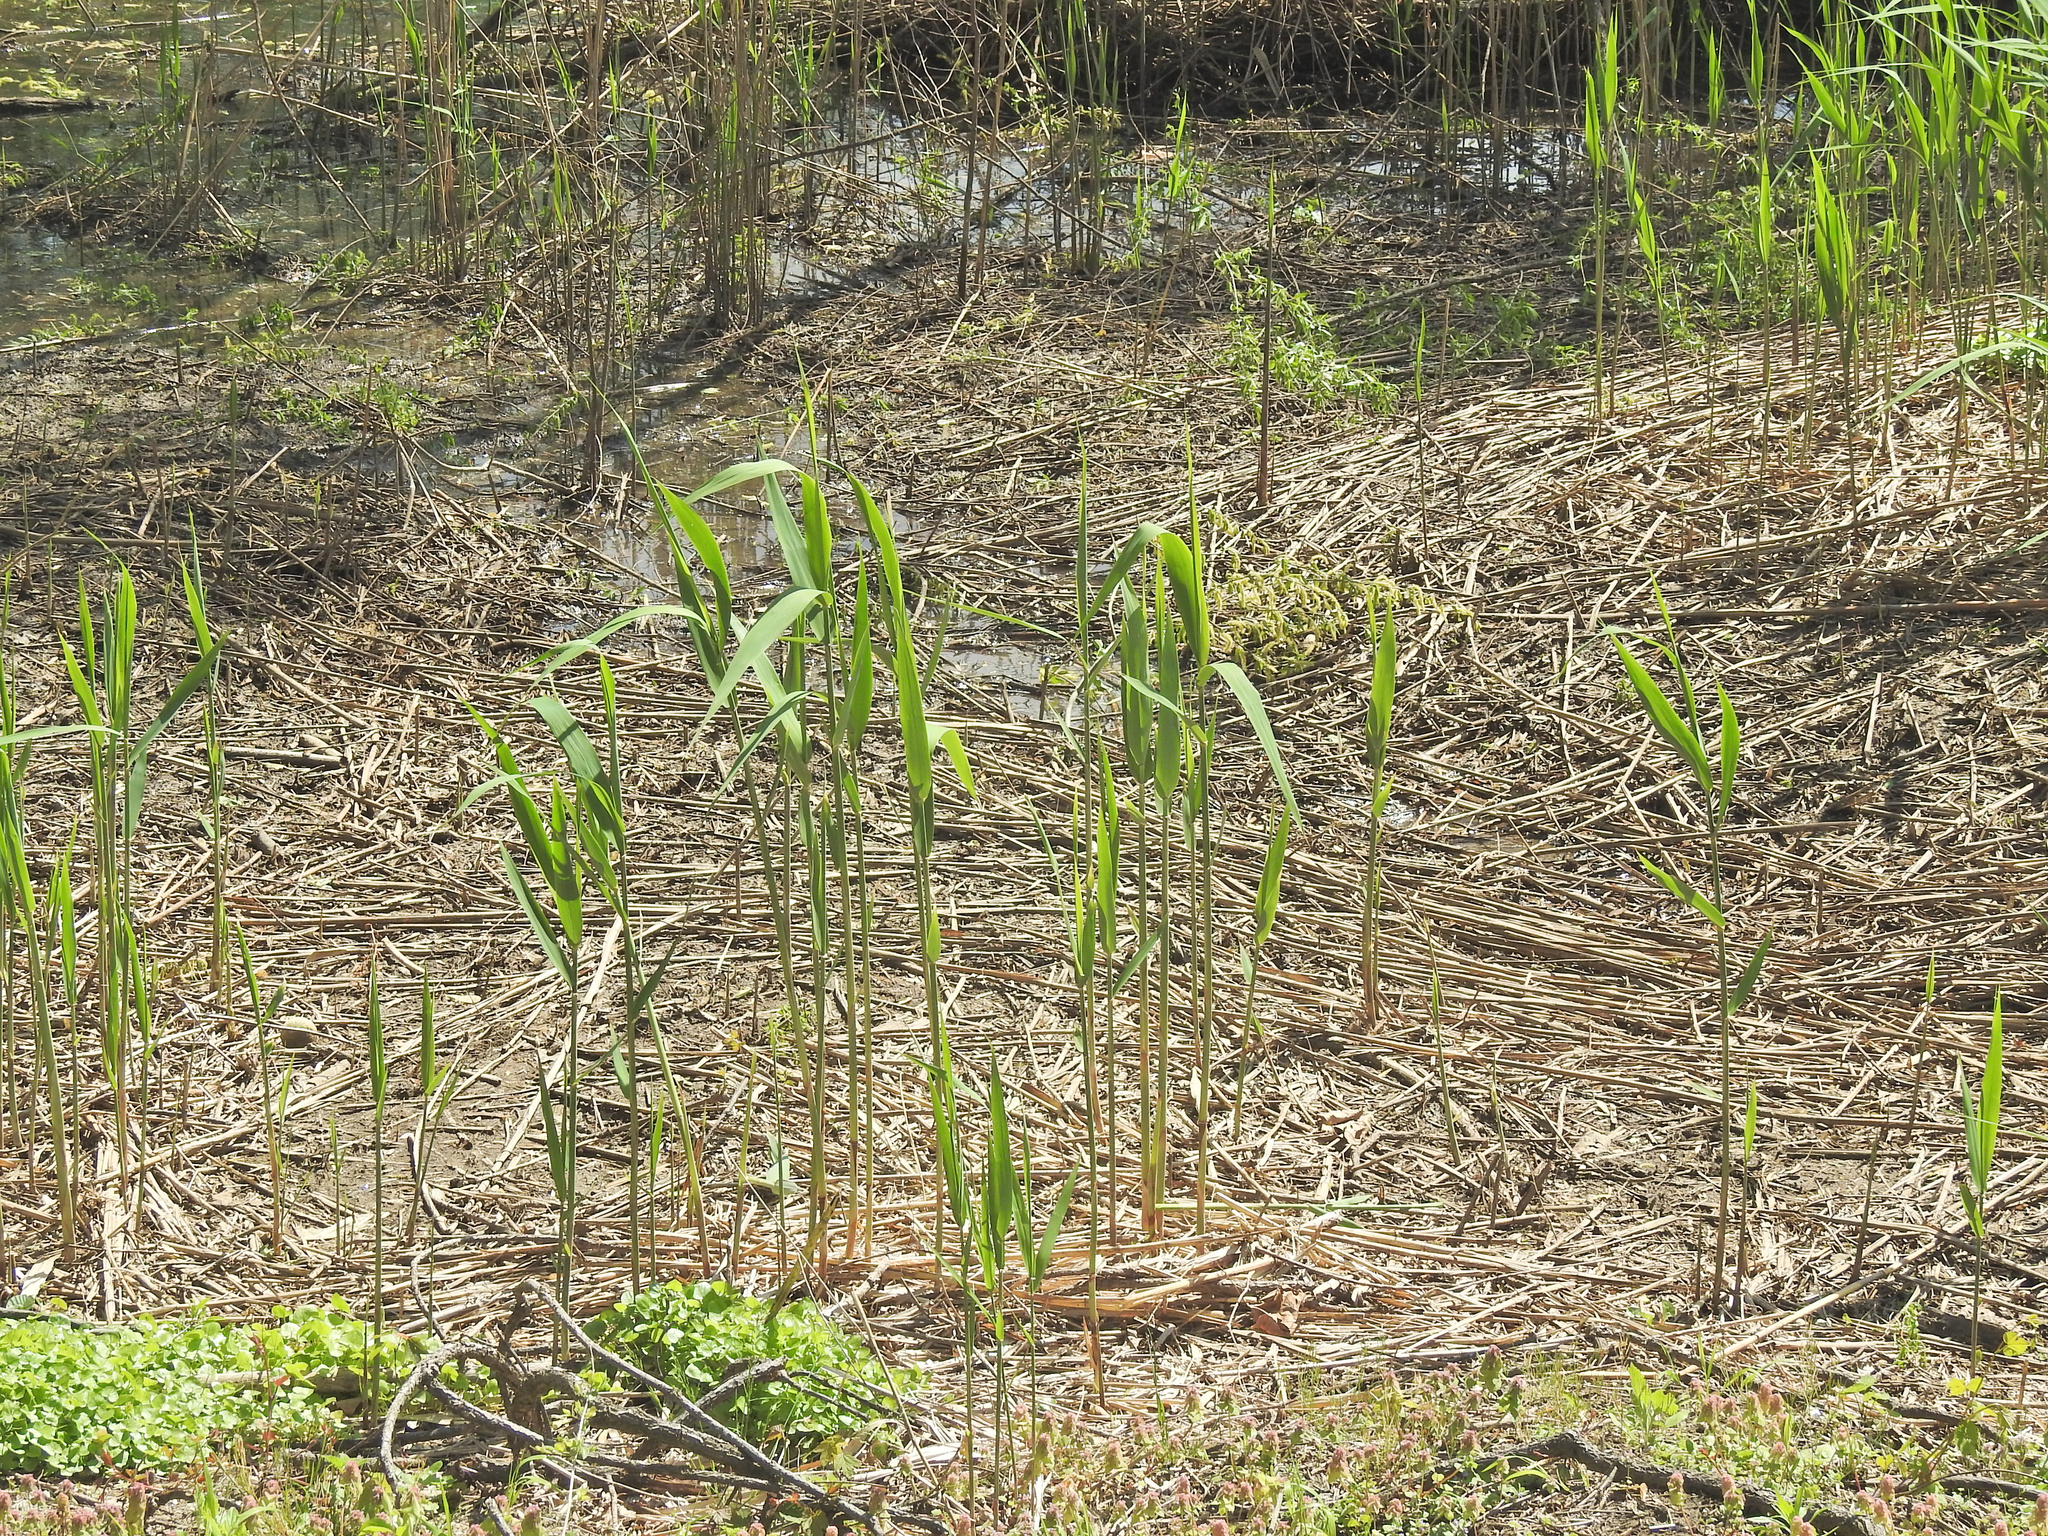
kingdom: Plantae
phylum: Tracheophyta
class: Liliopsida
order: Poales
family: Poaceae
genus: Phragmites
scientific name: Phragmites australis
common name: Common reed
